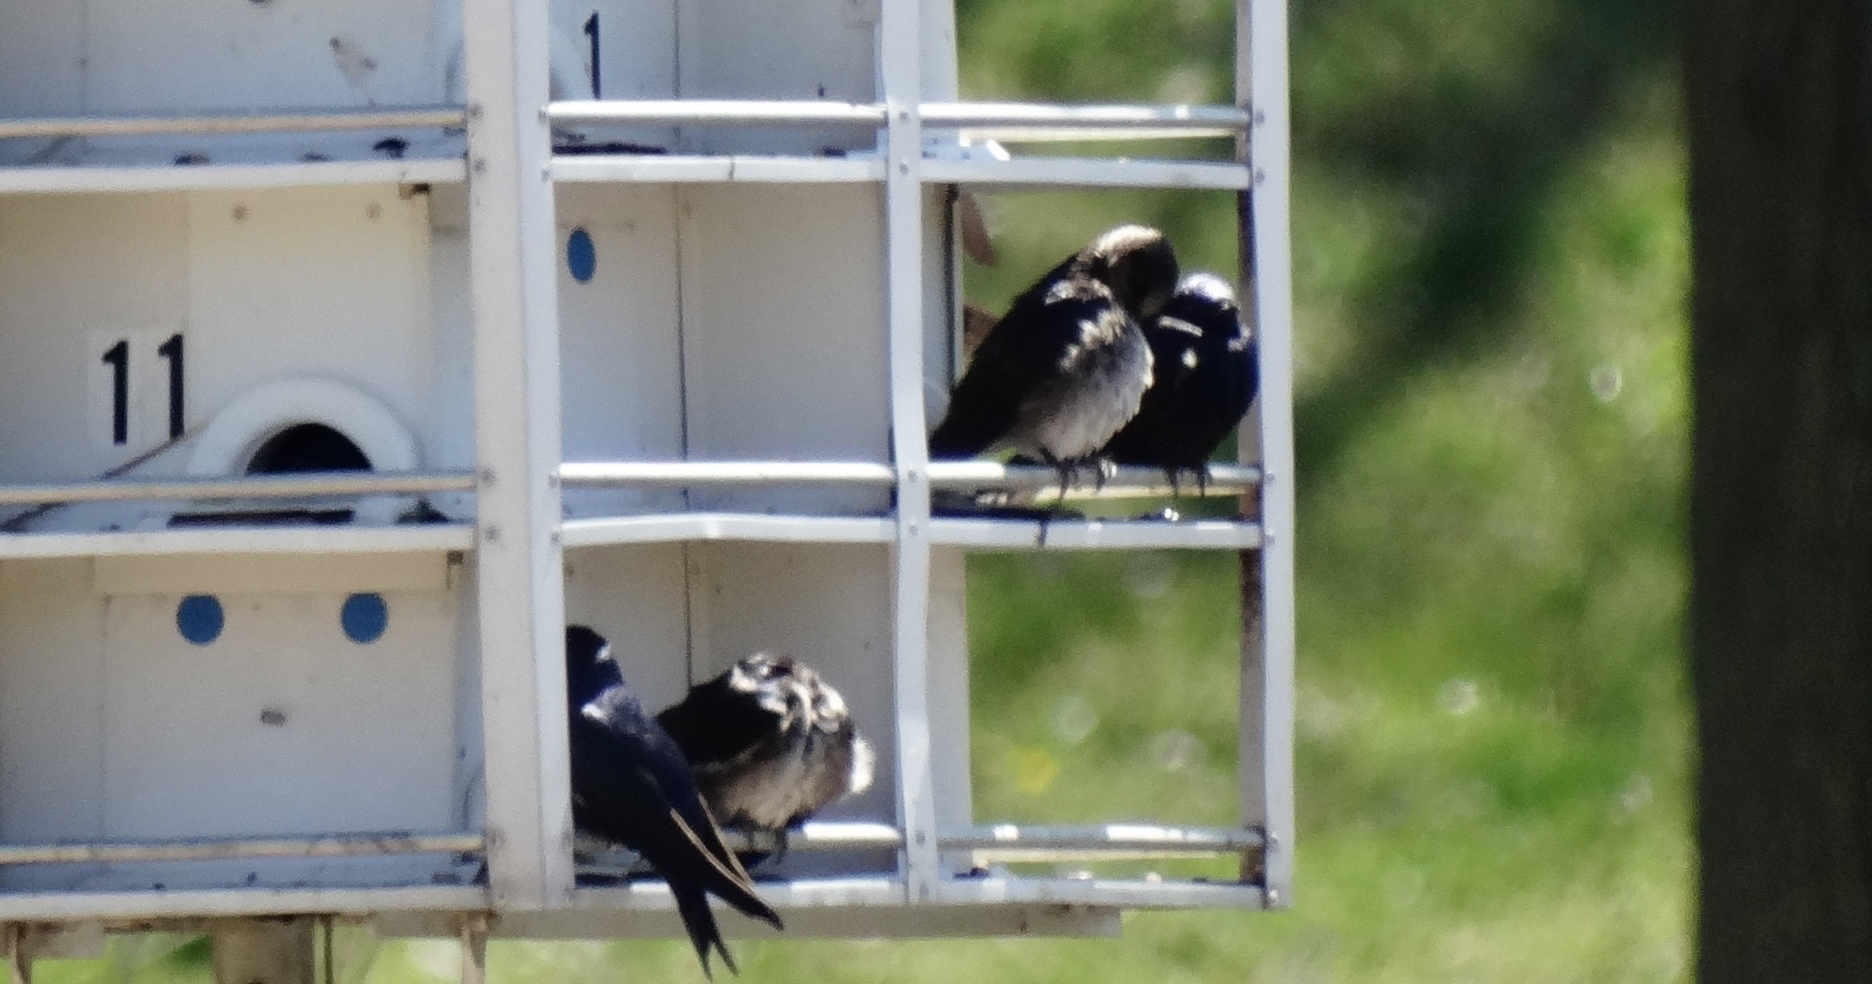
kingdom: Animalia
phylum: Chordata
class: Aves
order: Passeriformes
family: Hirundinidae
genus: Progne
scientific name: Progne subis
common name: Purple martin
